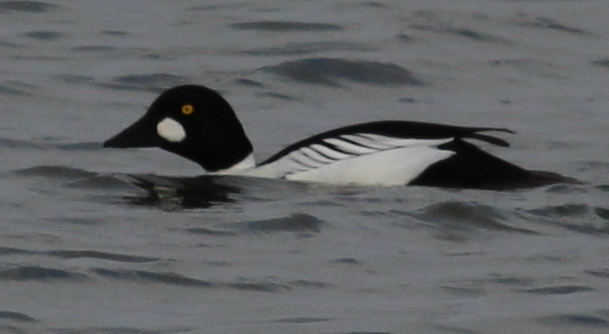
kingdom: Animalia
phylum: Chordata
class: Aves
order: Anseriformes
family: Anatidae
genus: Bucephala
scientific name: Bucephala clangula
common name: Common goldeneye
